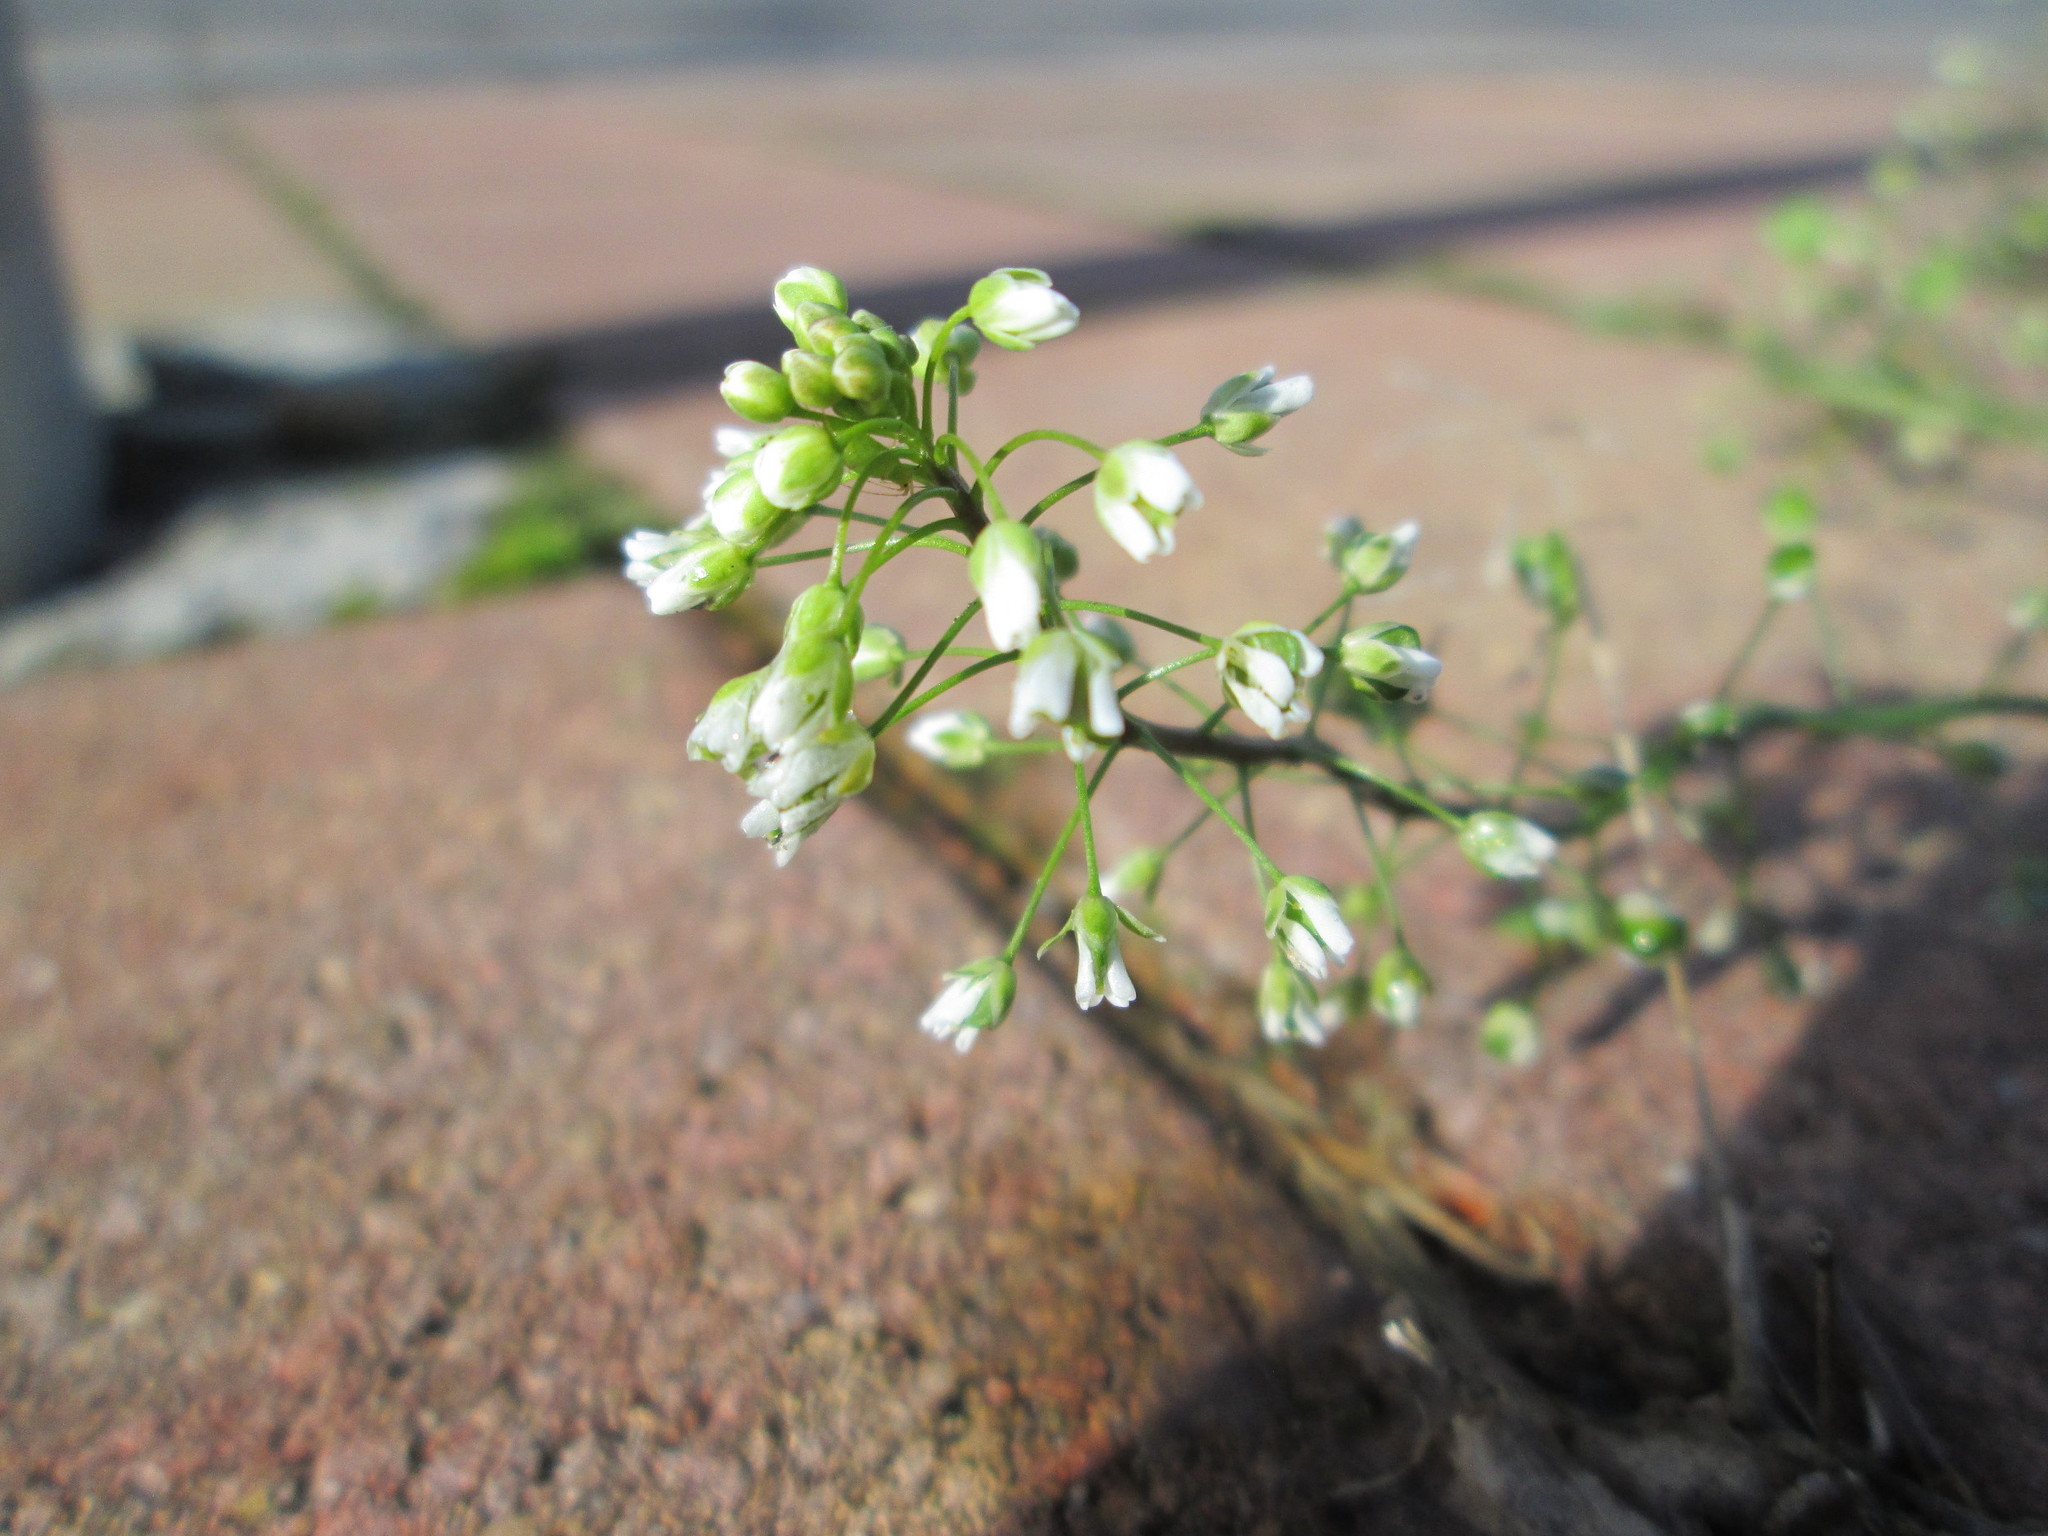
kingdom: Plantae
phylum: Tracheophyta
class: Magnoliopsida
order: Brassicales
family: Brassicaceae
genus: Capsella
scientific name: Capsella bursa-pastoris
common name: Shepherd's purse
